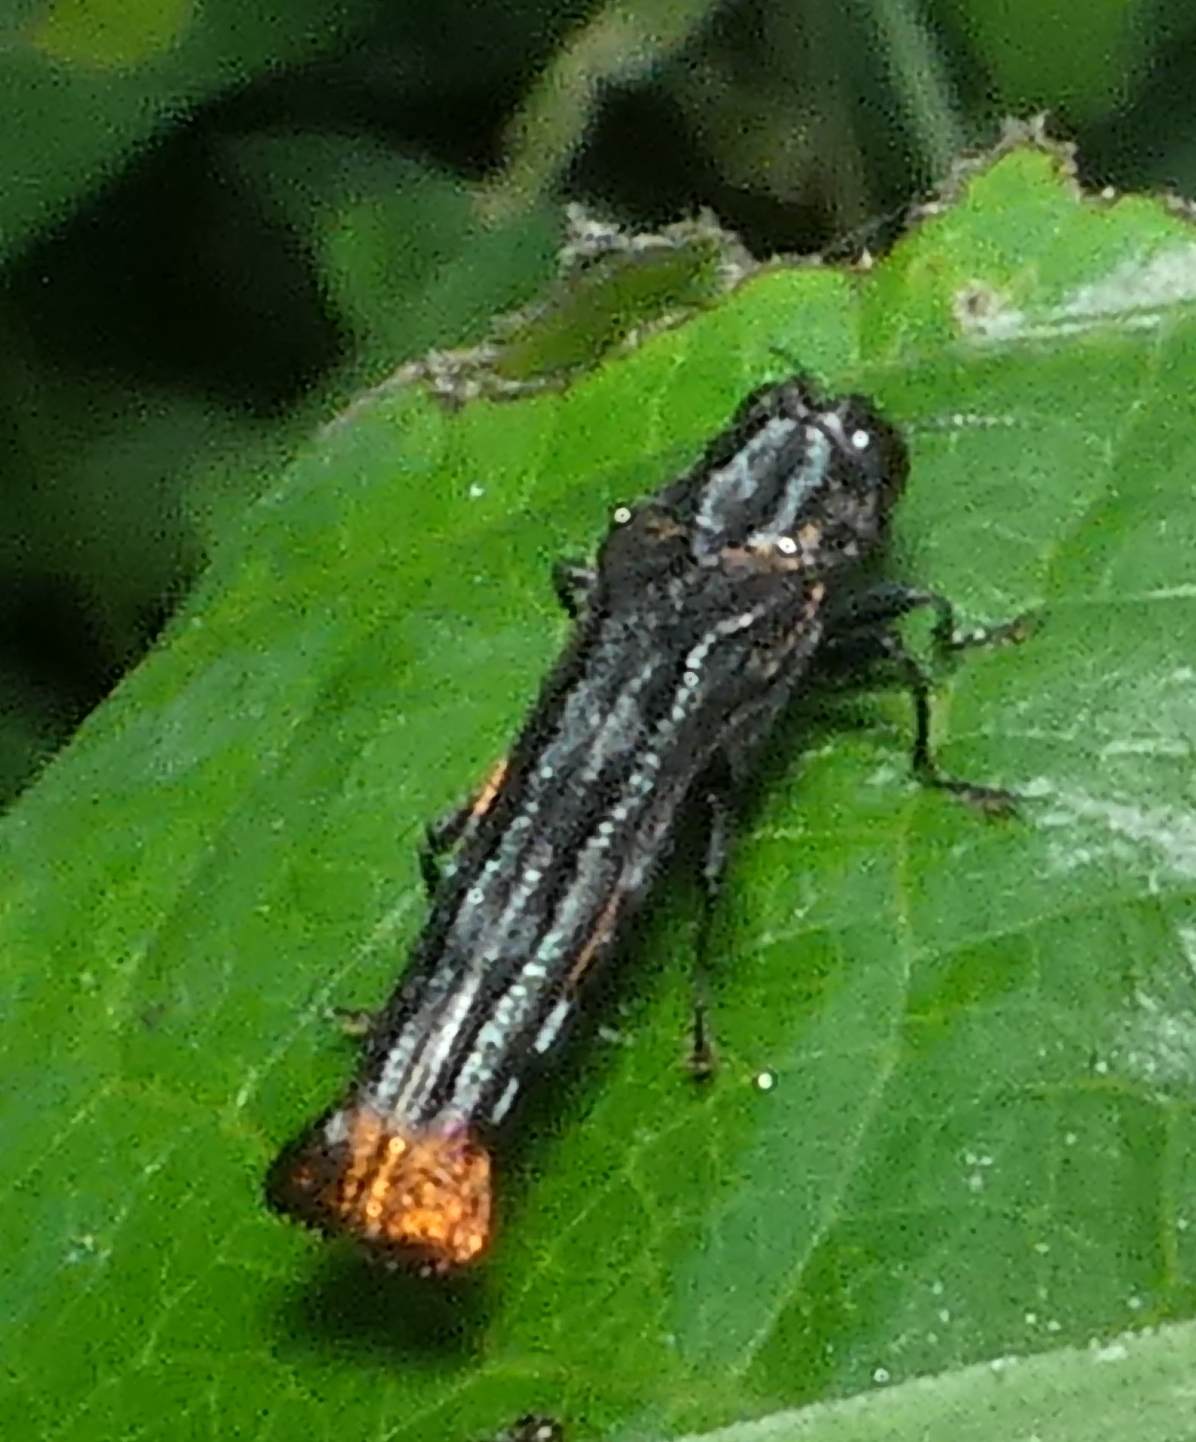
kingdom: Animalia
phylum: Arthropoda
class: Insecta
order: Coleoptera
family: Buprestidae
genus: Agrilus
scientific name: Agrilus pyrosurus
